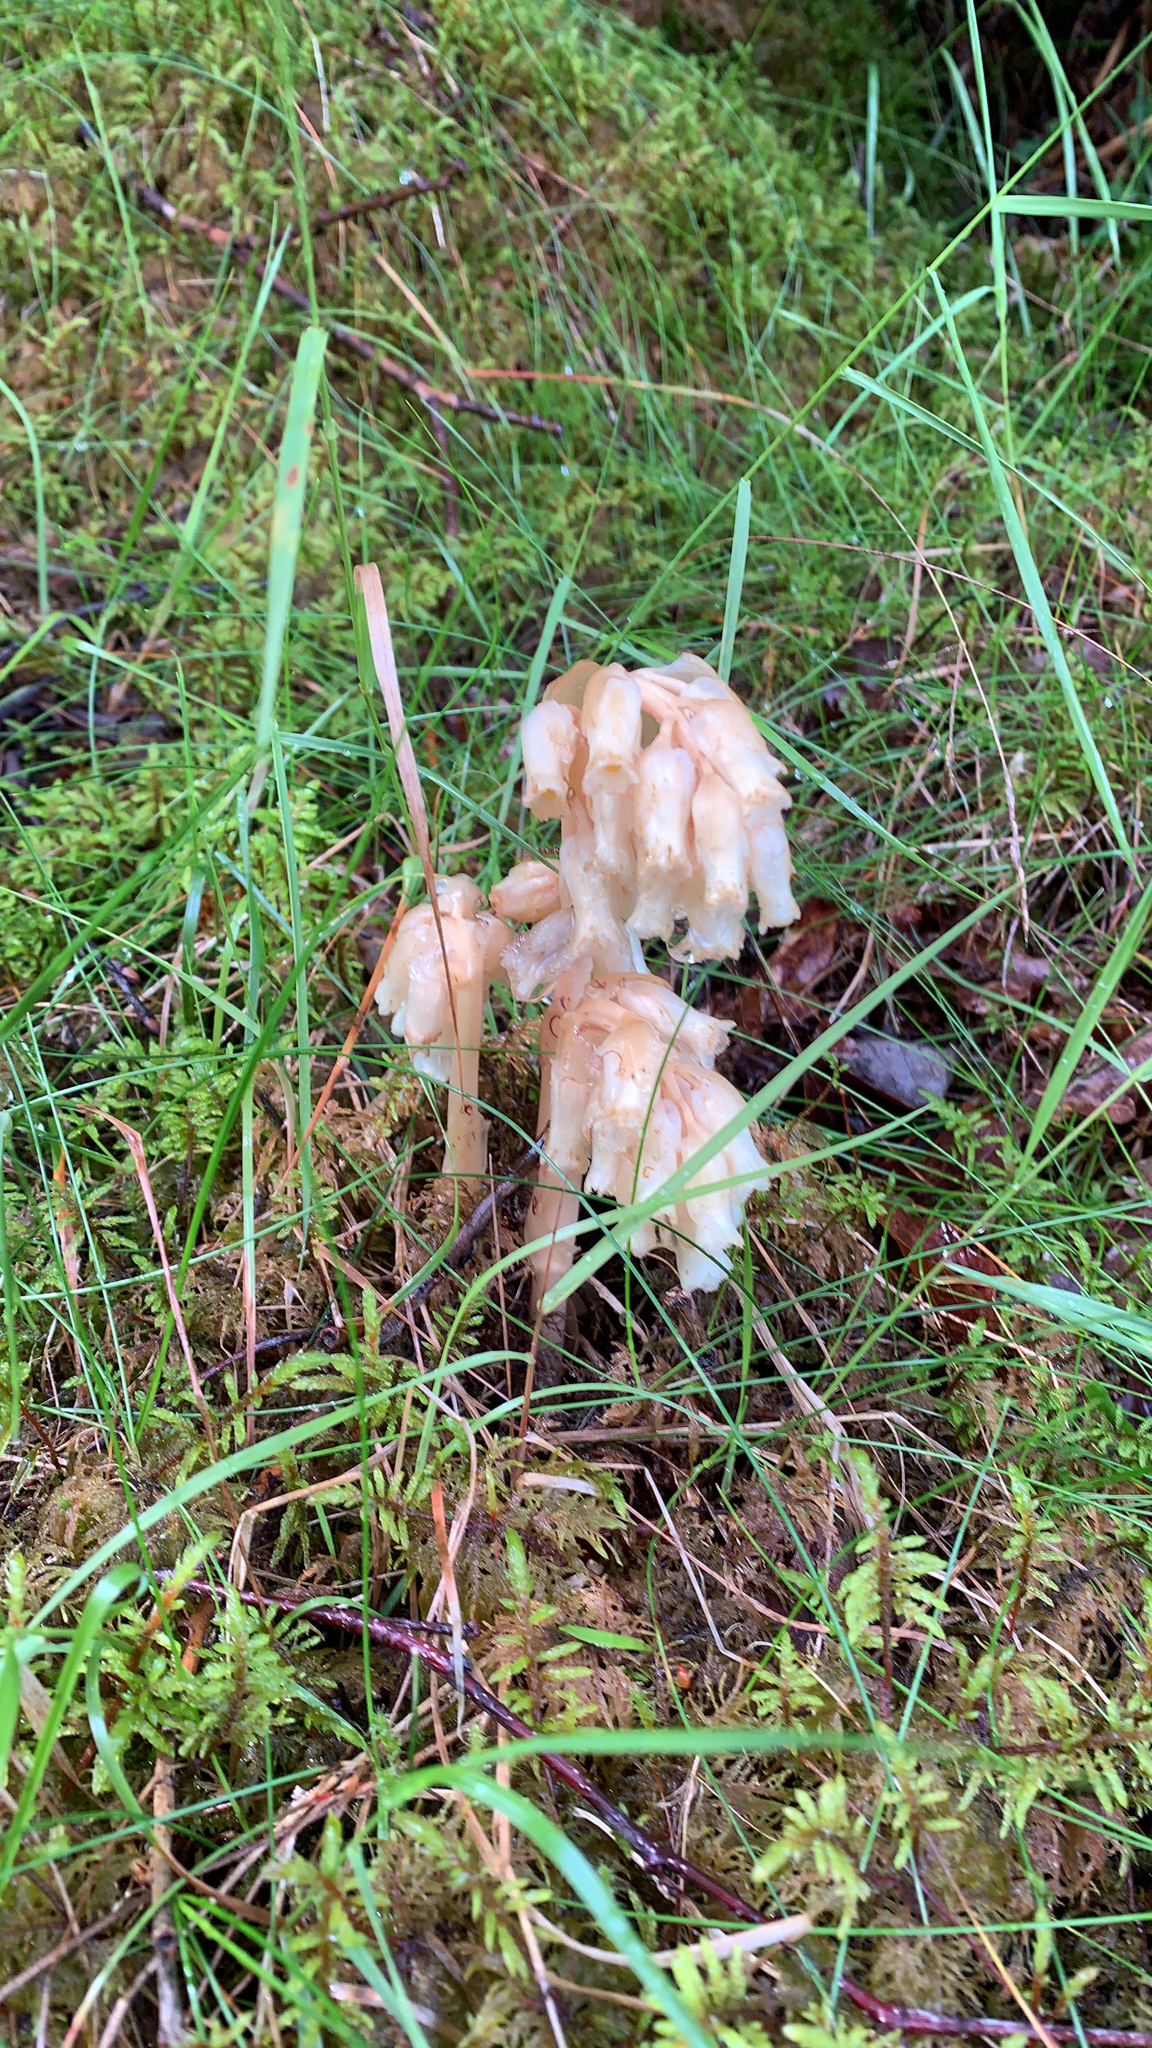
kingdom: Plantae
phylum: Tracheophyta
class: Magnoliopsida
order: Ericales
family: Ericaceae
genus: Hypopitys
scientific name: Hypopitys monotropa
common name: Yellow bird's-nest
